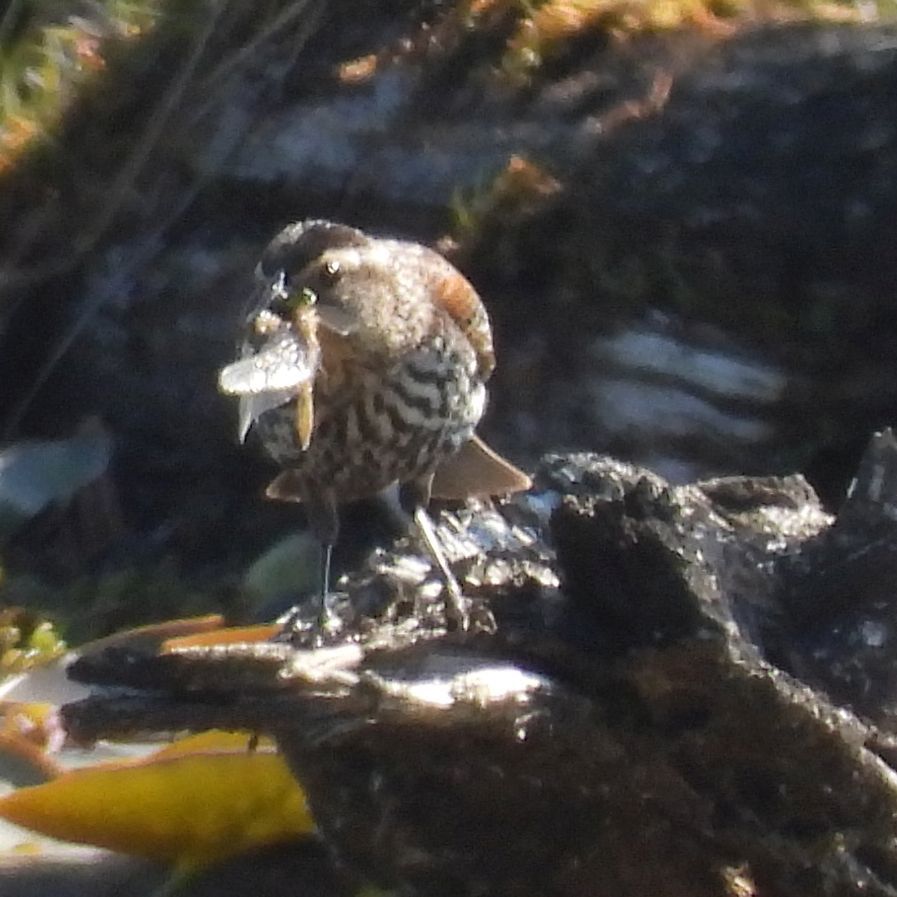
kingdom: Animalia
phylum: Chordata
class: Aves
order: Passeriformes
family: Icteridae
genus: Agelaius
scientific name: Agelaius phoeniceus
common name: Red-winged blackbird
